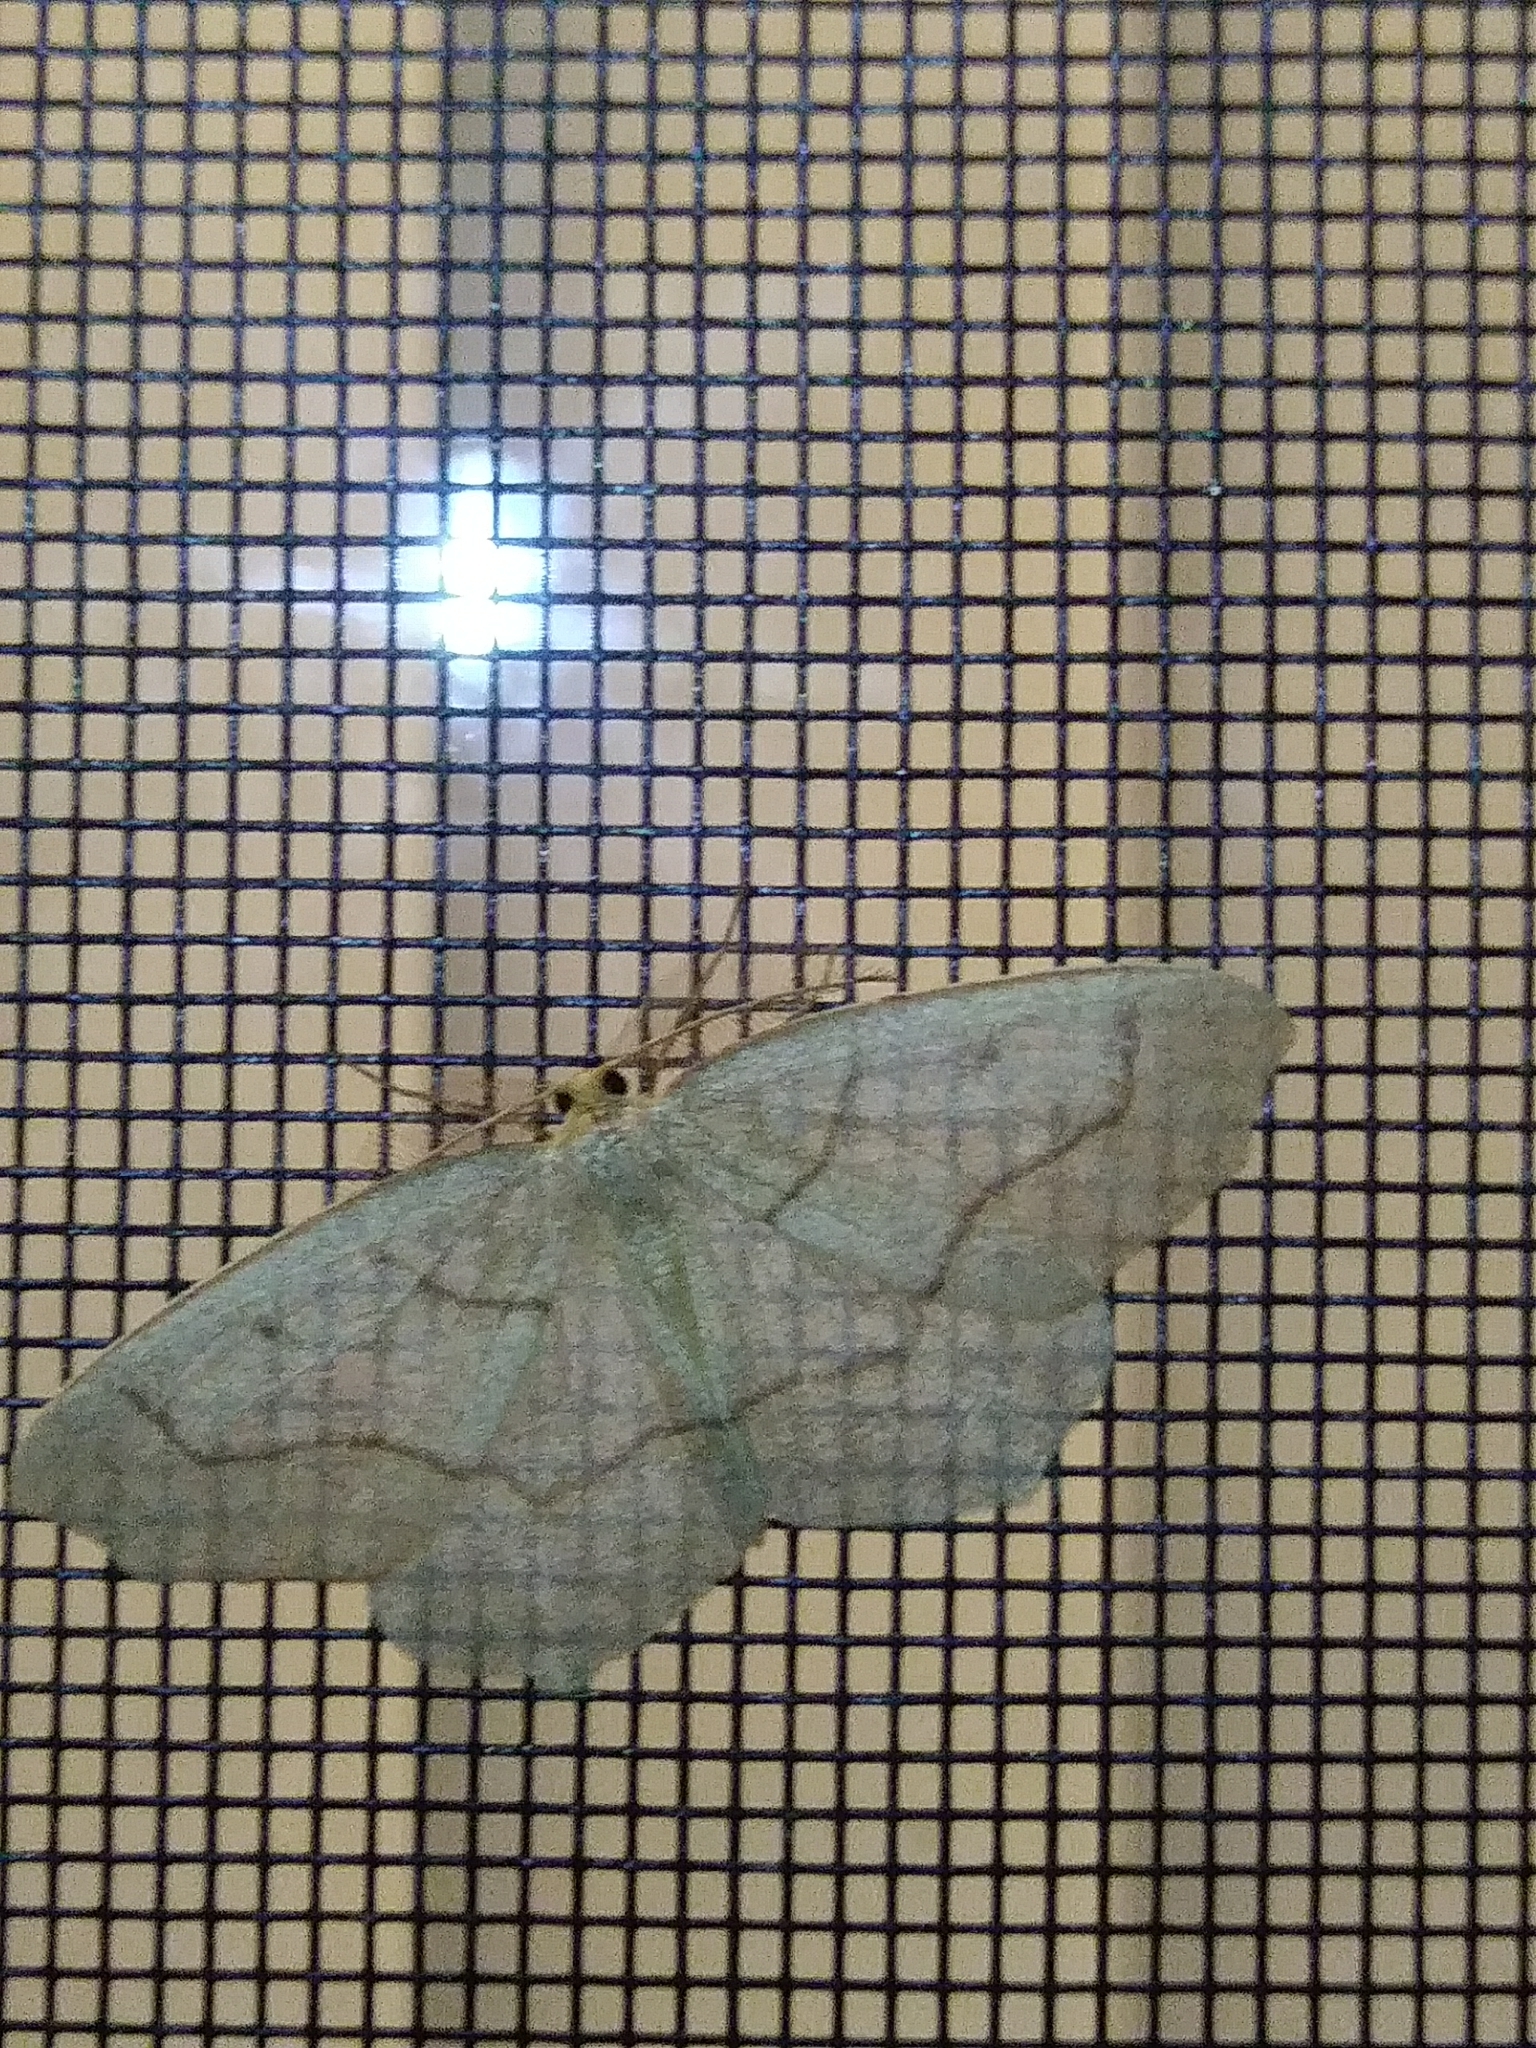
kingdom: Animalia
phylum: Arthropoda
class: Insecta
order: Lepidoptera
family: Geometridae
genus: Lambdina
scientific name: Lambdina fiscellaria
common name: Hemlock looper
